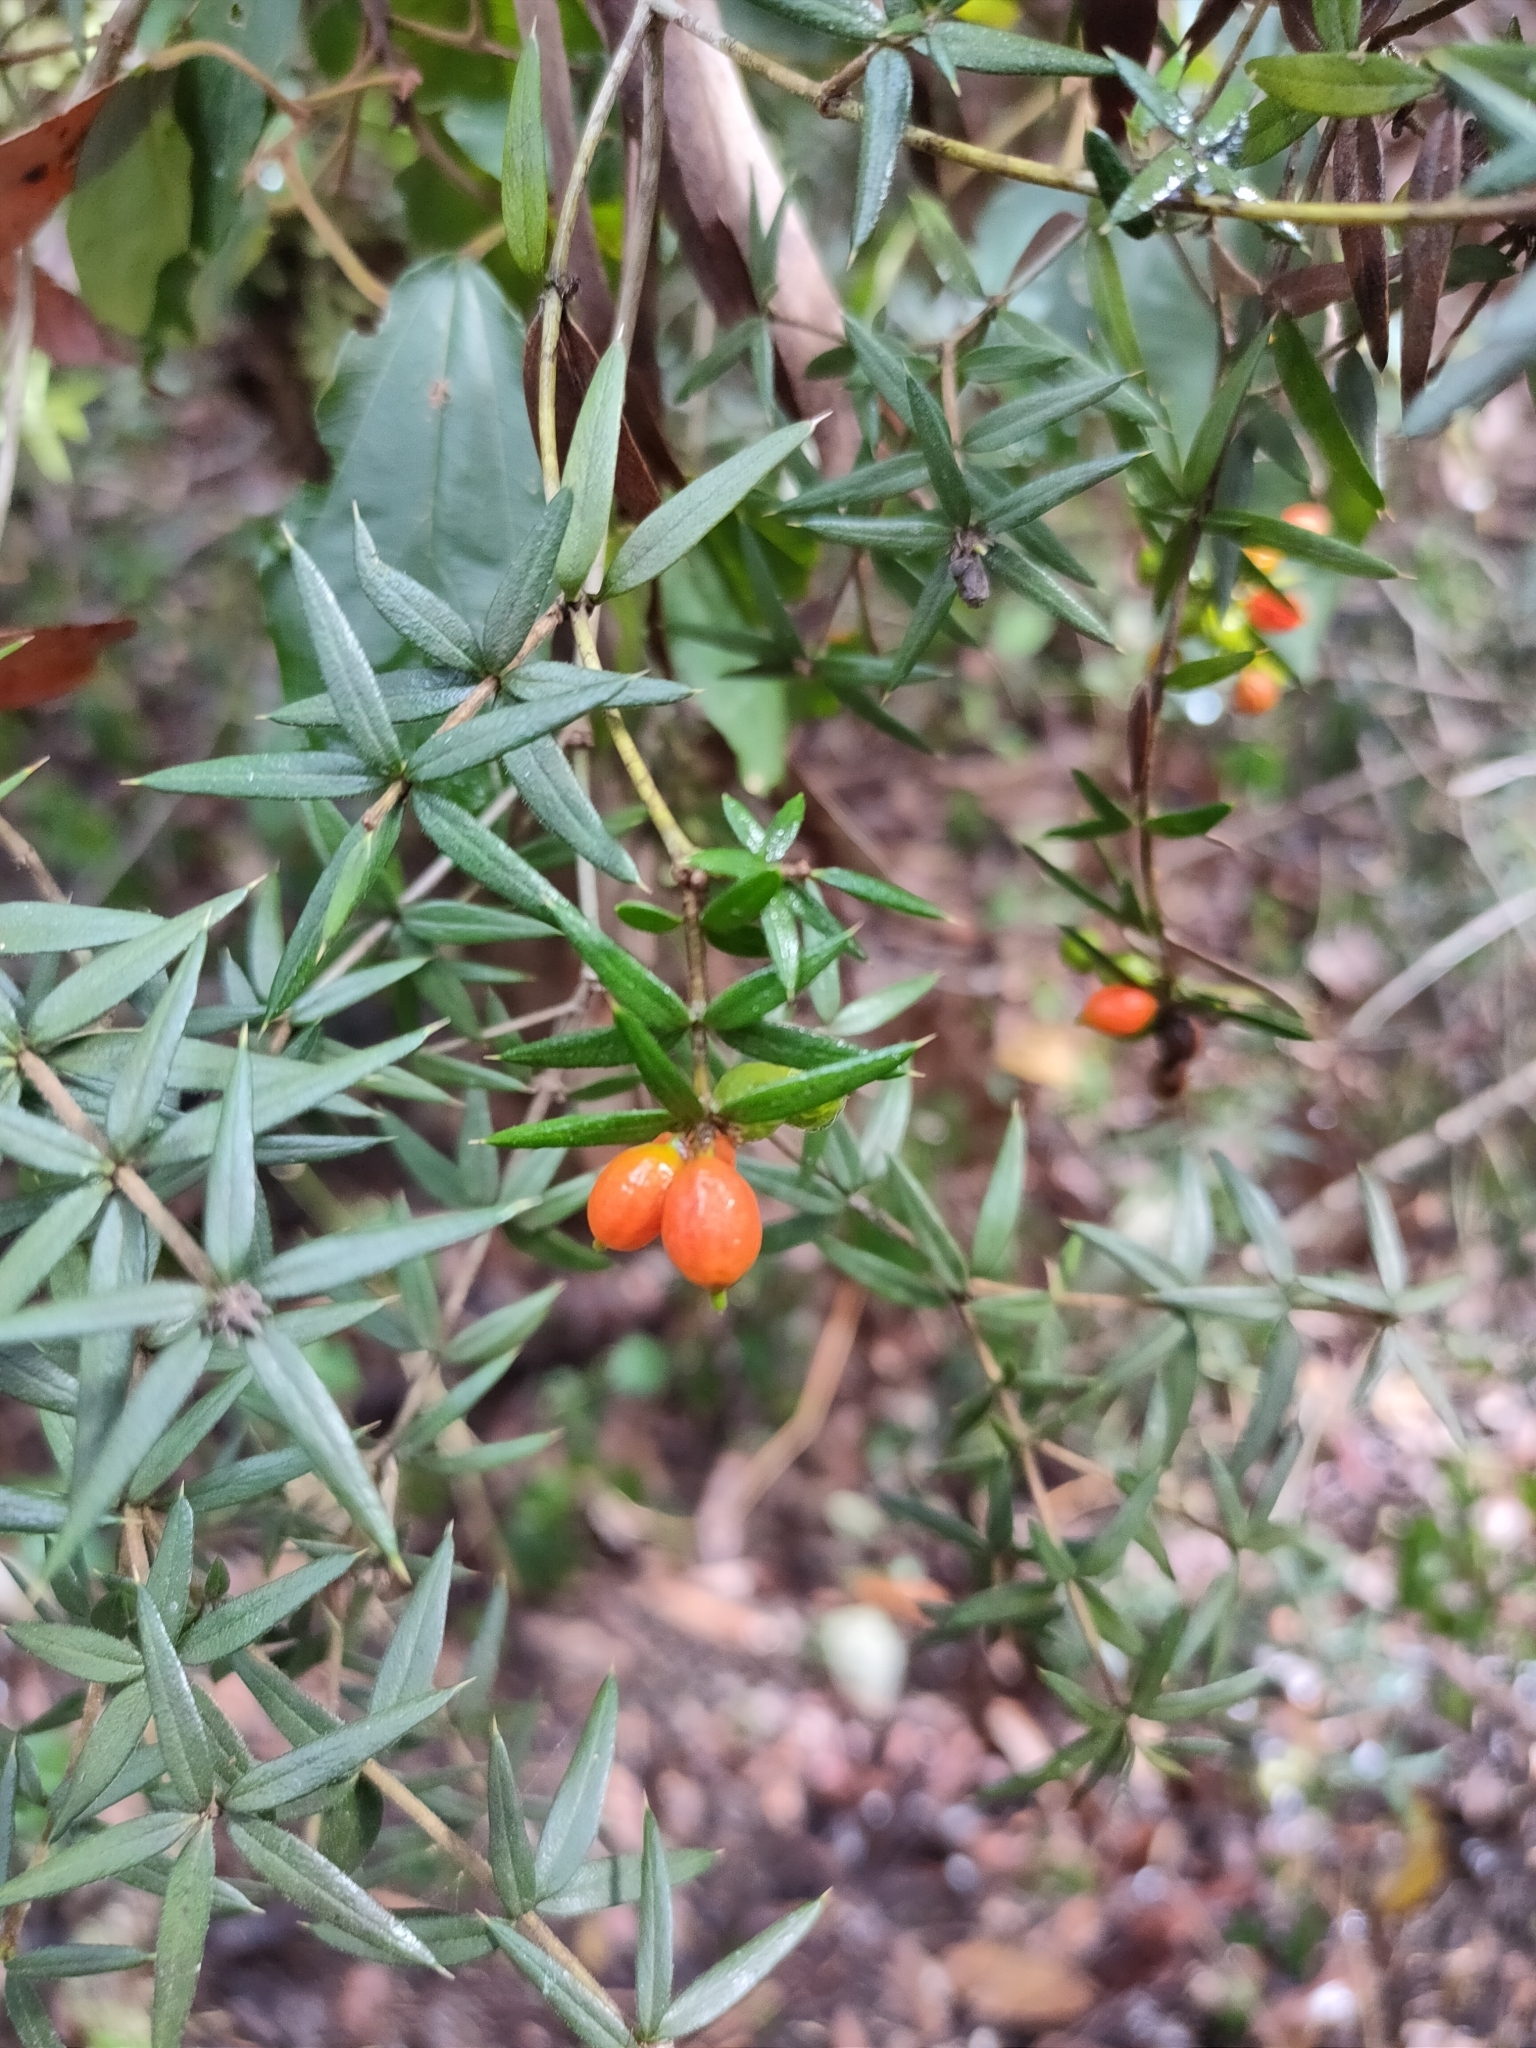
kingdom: Plantae
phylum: Tracheophyta
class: Magnoliopsida
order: Gentianales
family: Apocynaceae
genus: Alyxia
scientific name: Alyxia ruscifolia
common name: Chainfruit
